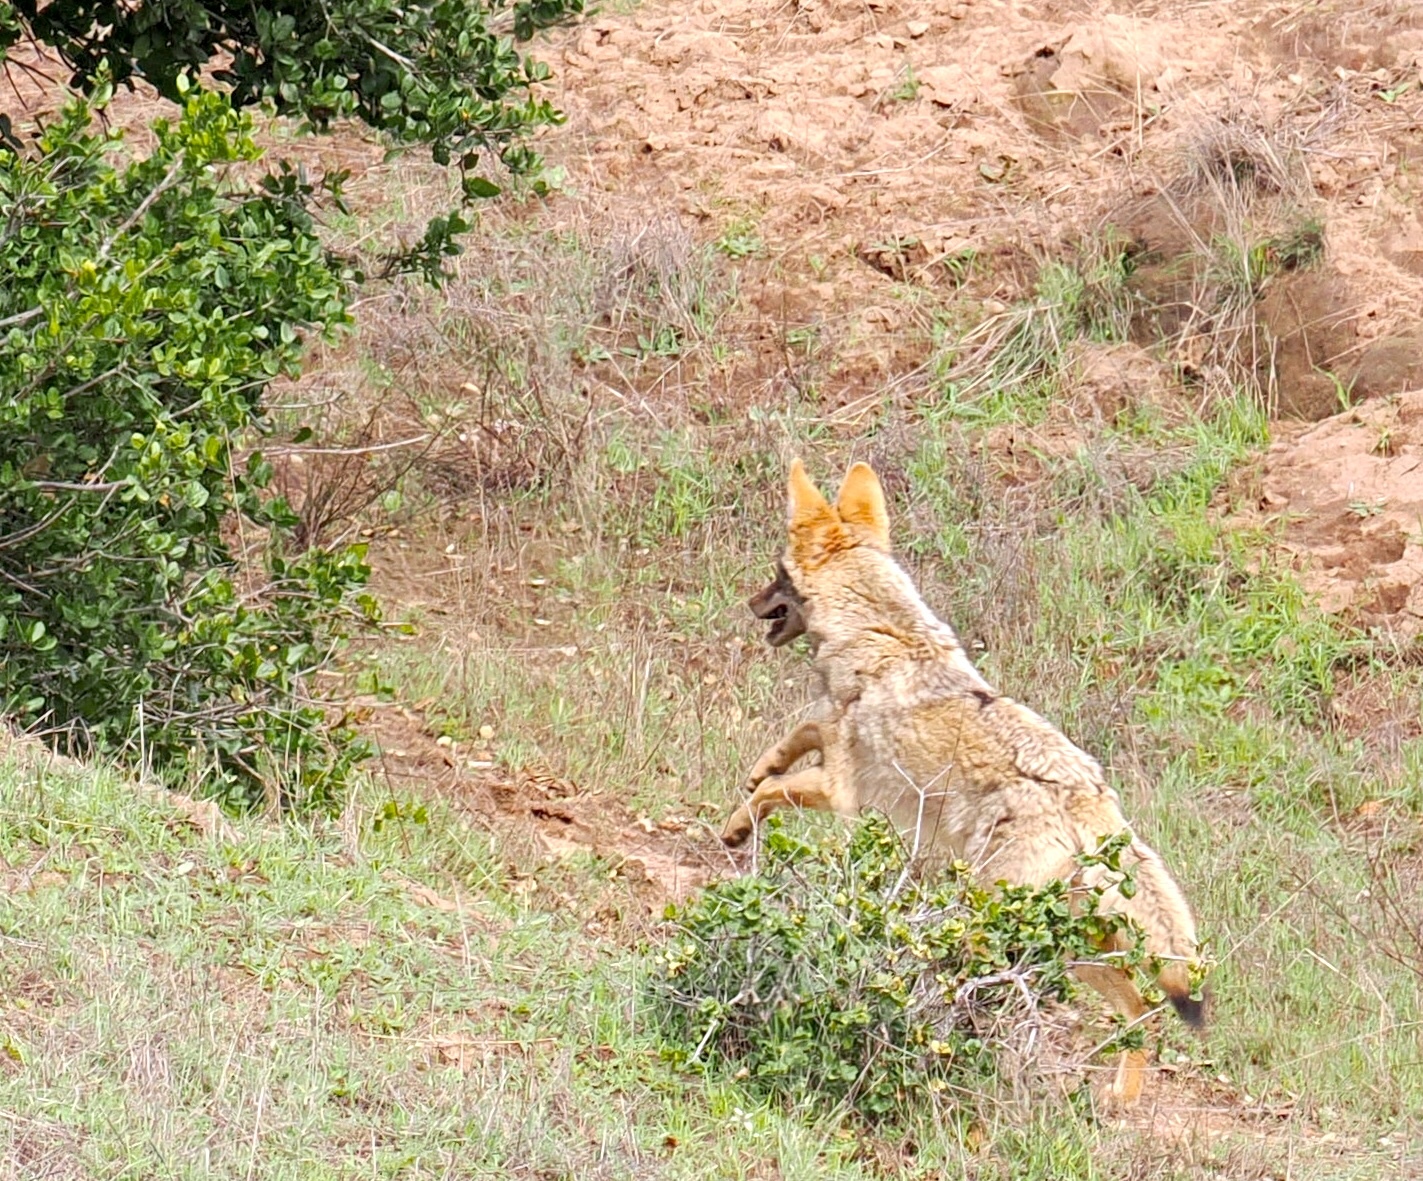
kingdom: Animalia
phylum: Chordata
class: Mammalia
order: Carnivora
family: Canidae
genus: Canis
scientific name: Canis latrans
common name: Coyote
